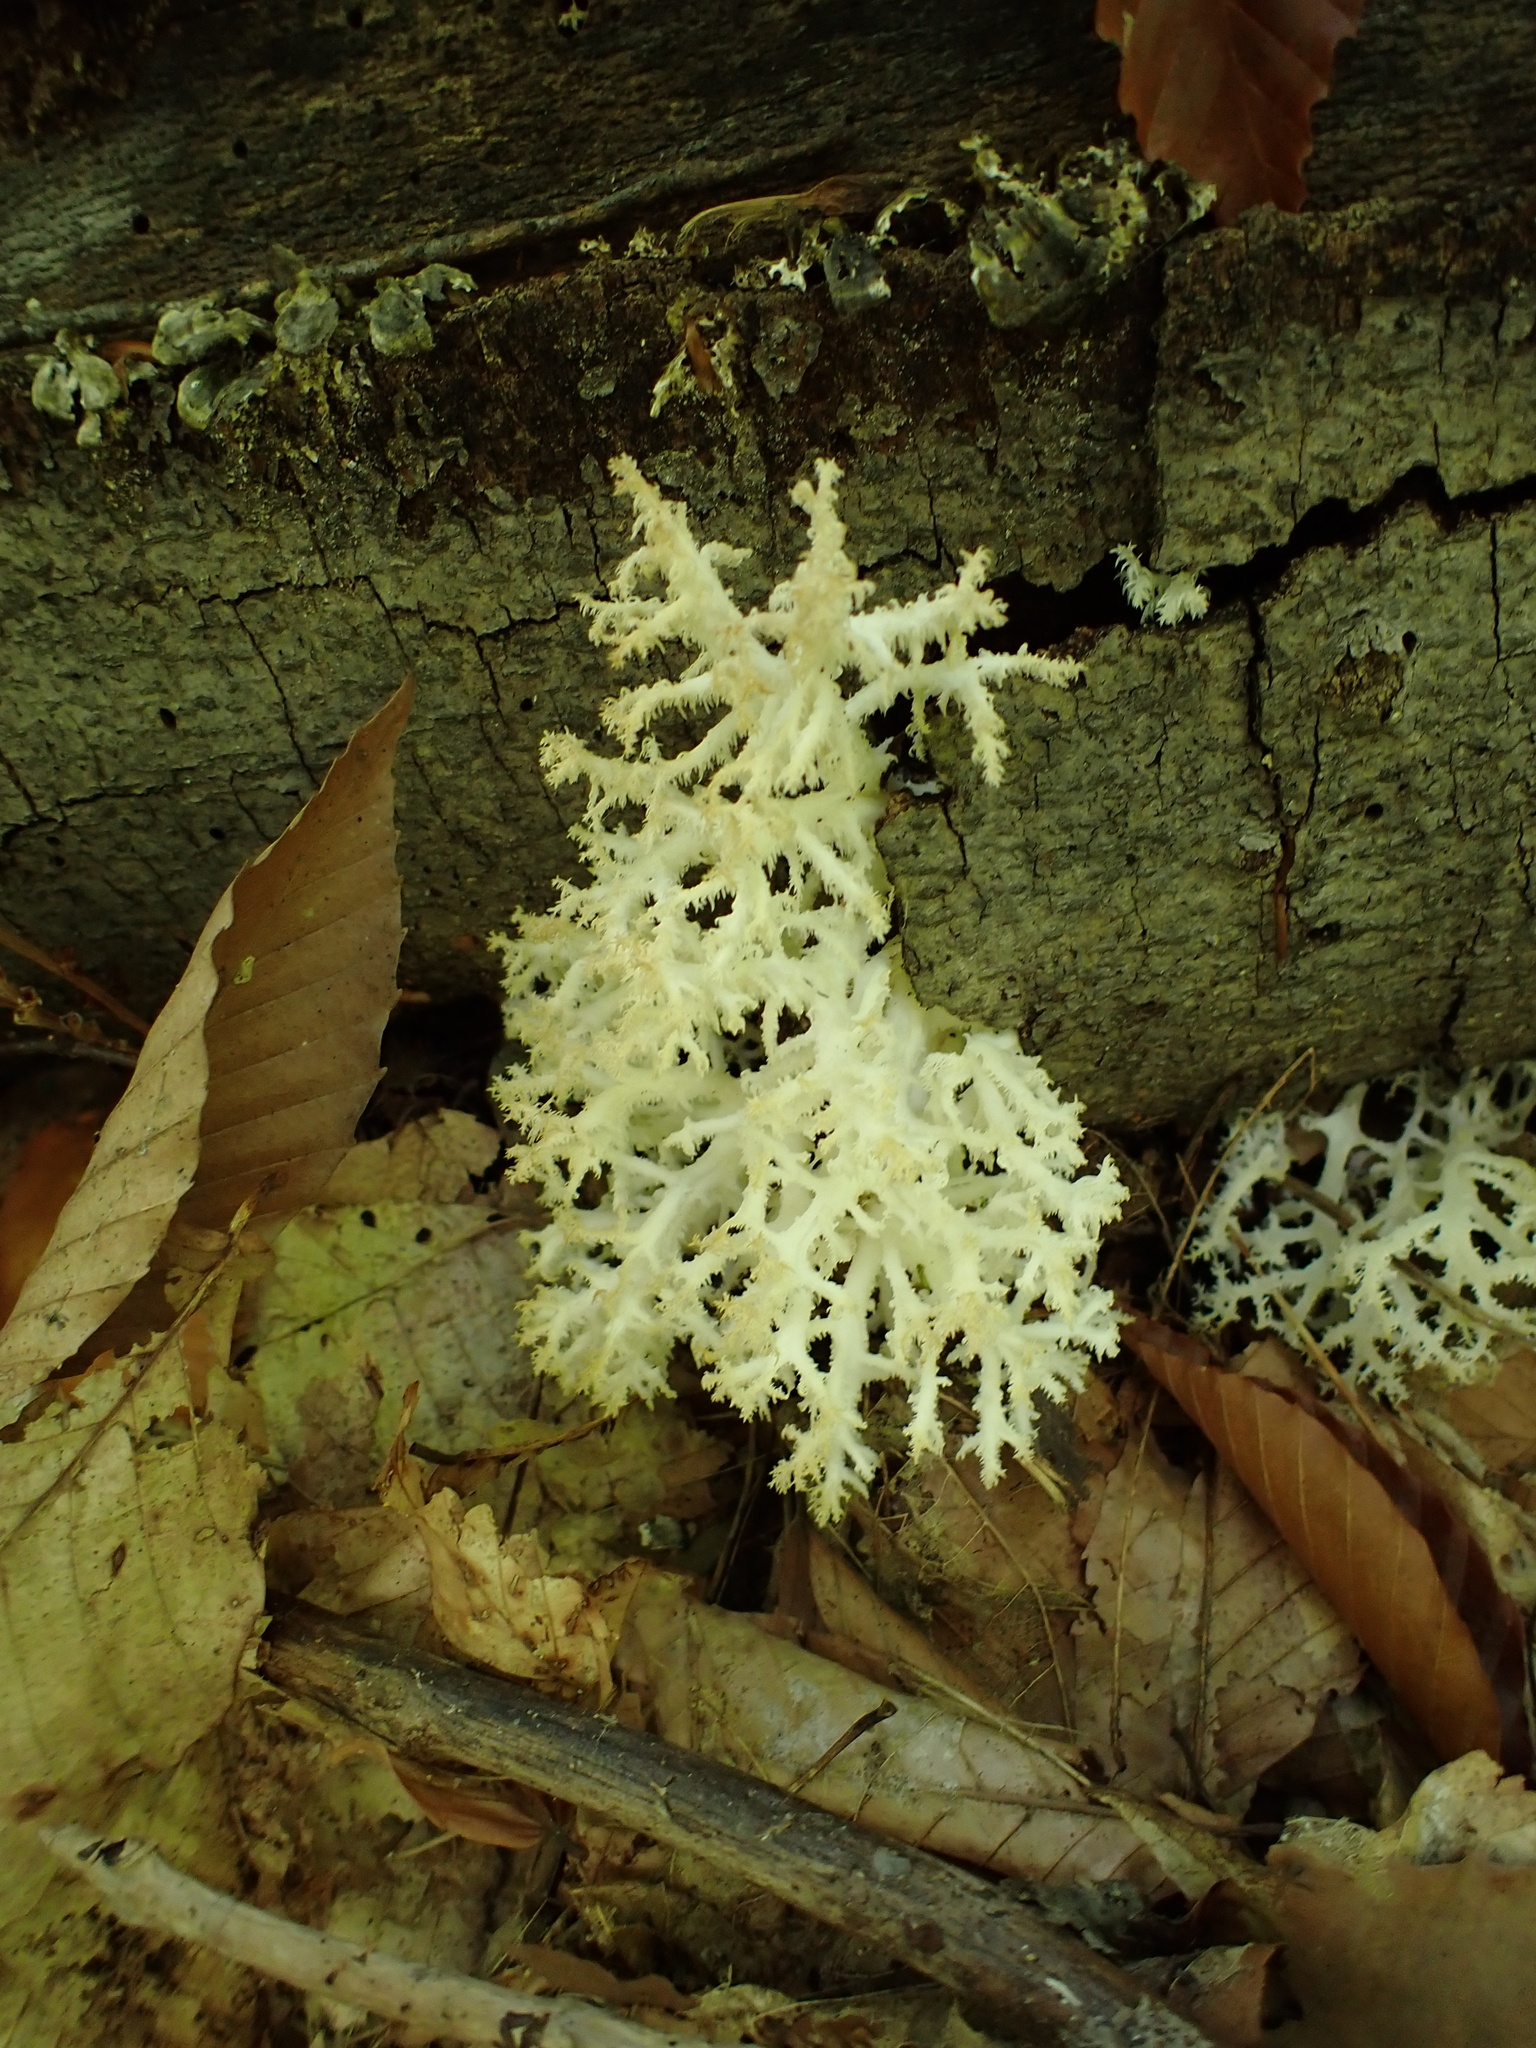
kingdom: Fungi
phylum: Basidiomycota
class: Agaricomycetes
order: Russulales
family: Hericiaceae
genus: Hericium
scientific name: Hericium coralloides
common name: Coral tooth
